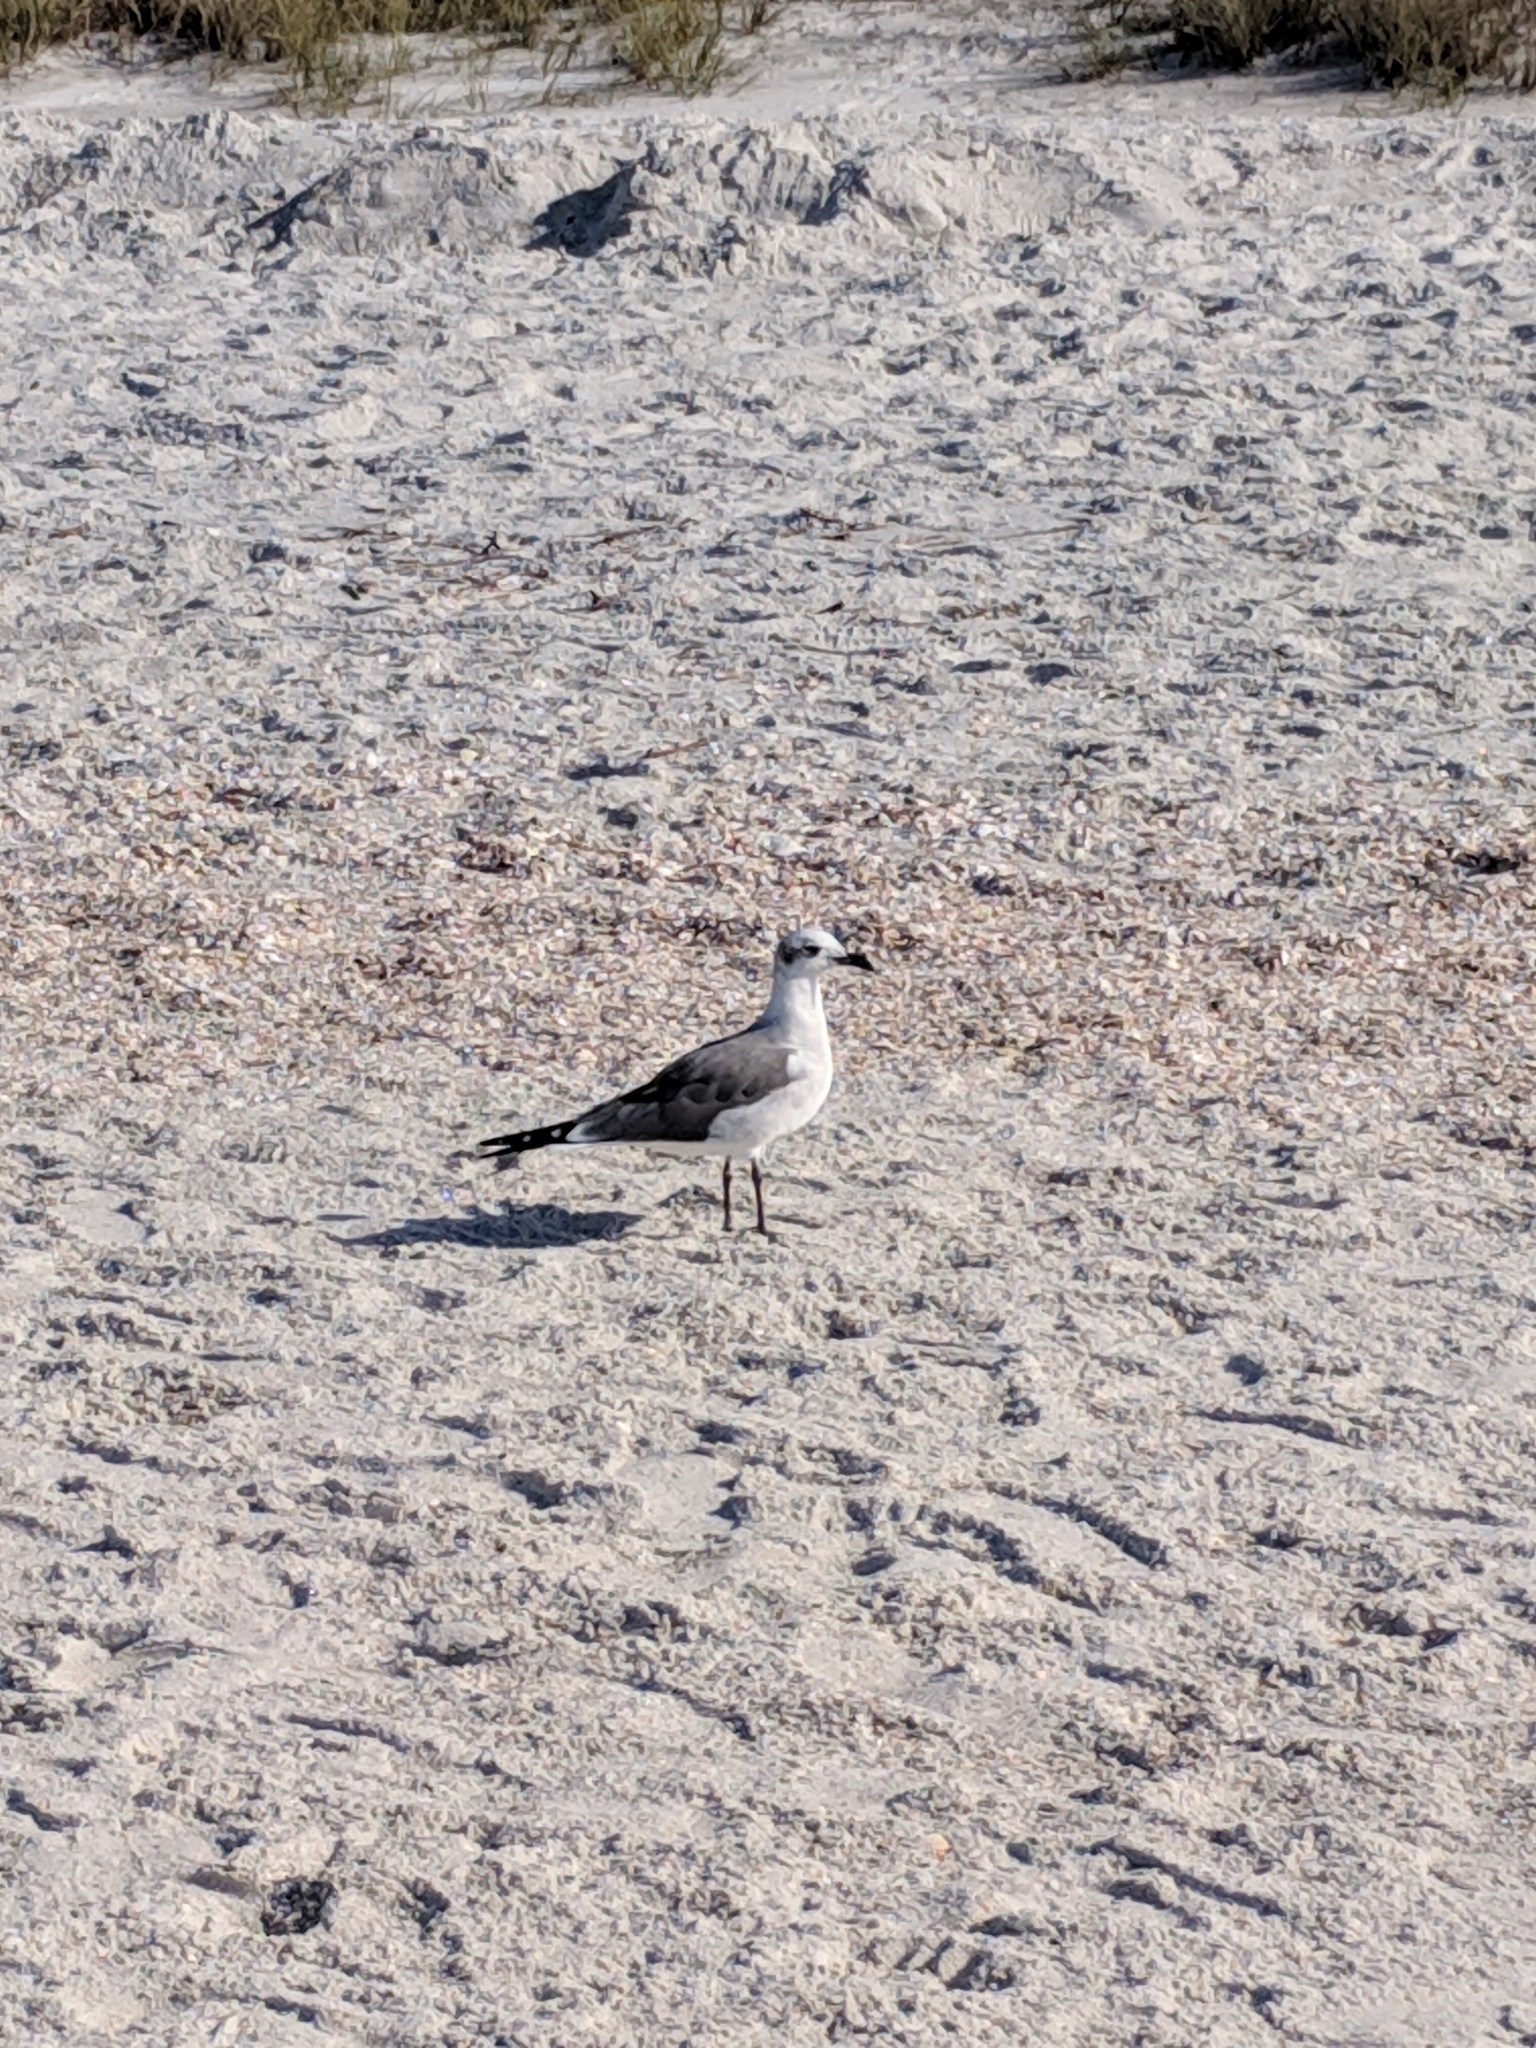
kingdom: Animalia
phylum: Chordata
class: Aves
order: Charadriiformes
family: Laridae
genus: Leucophaeus
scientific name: Leucophaeus atricilla
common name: Laughing gull
